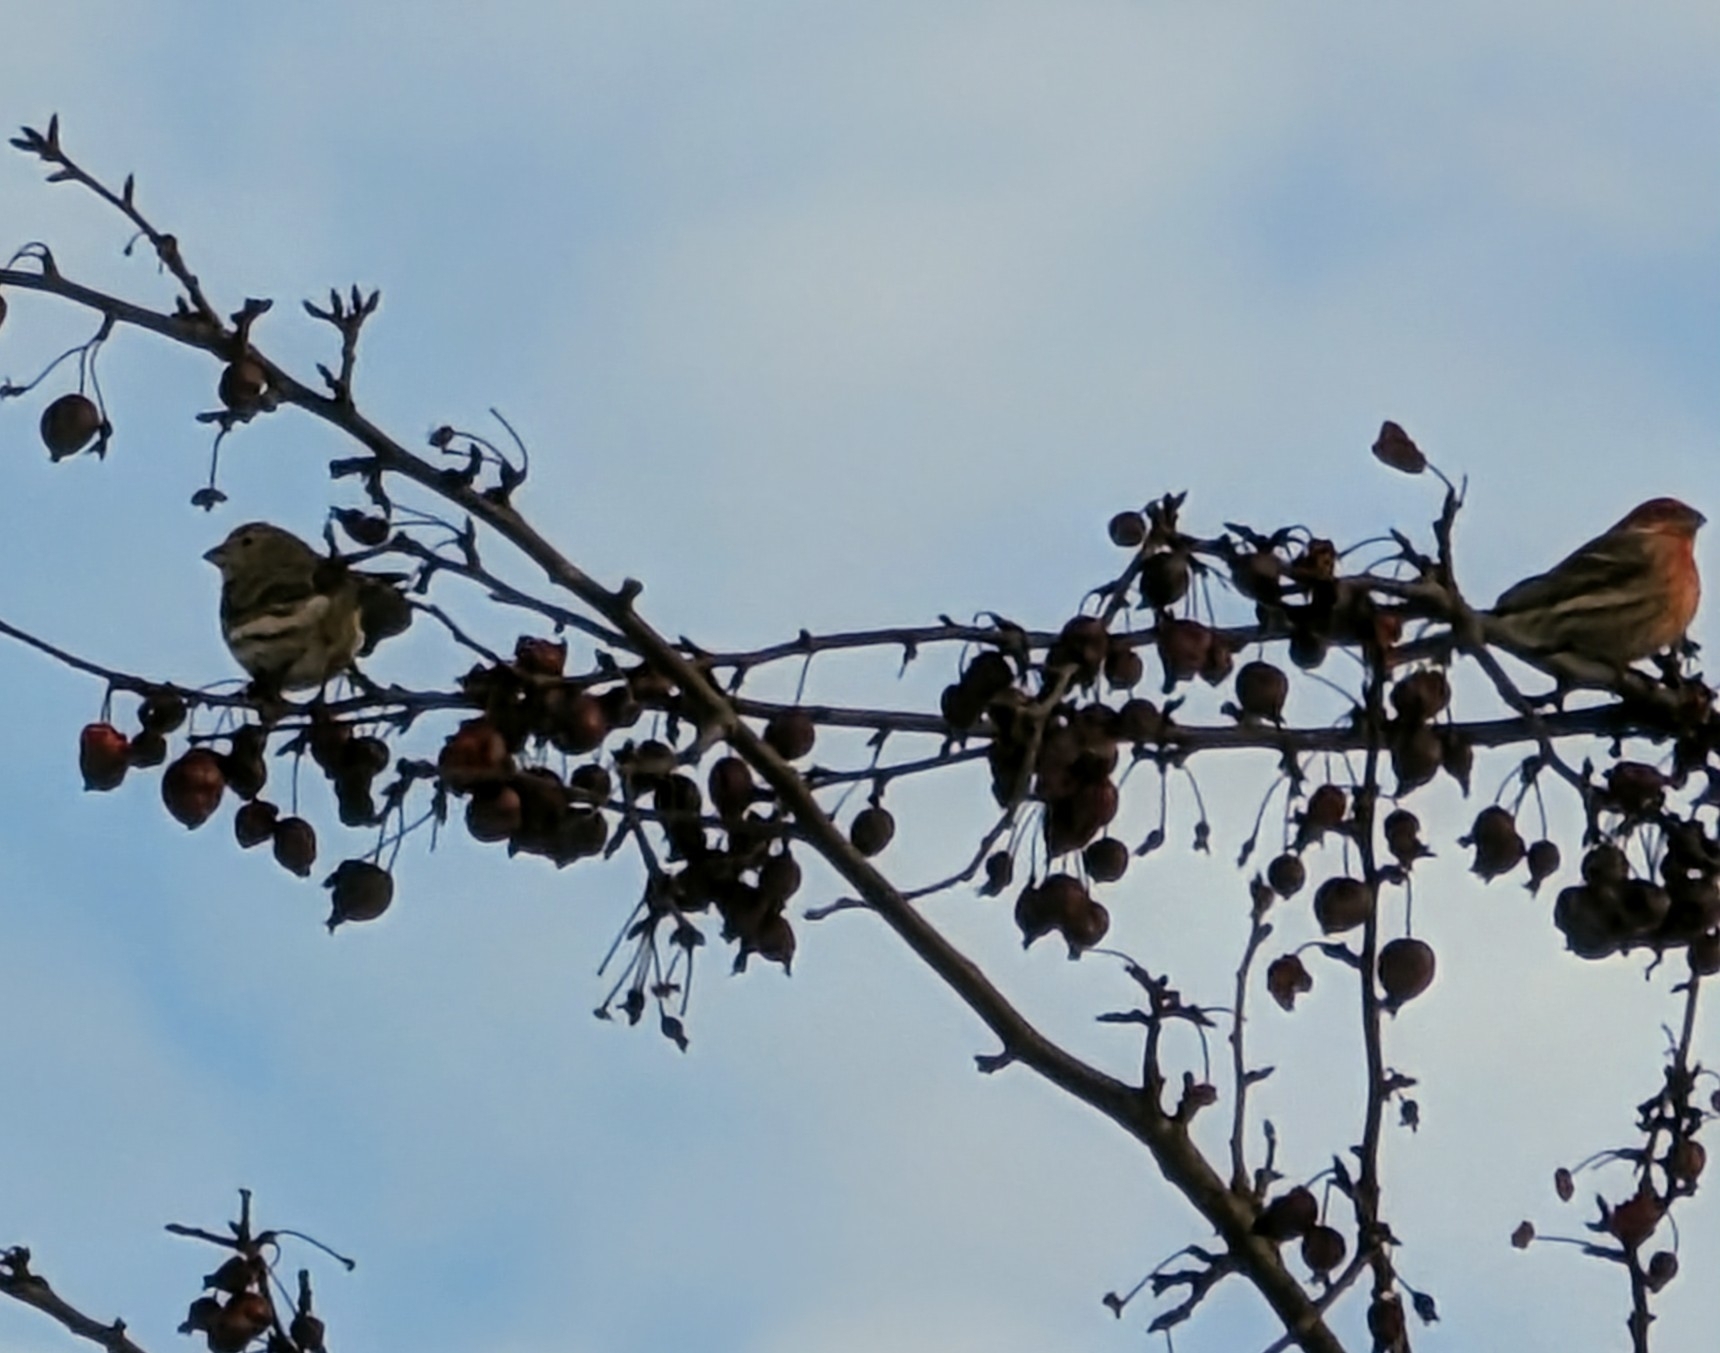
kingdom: Animalia
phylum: Chordata
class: Aves
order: Passeriformes
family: Fringillidae
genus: Haemorhous
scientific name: Haemorhous mexicanus
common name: House finch
